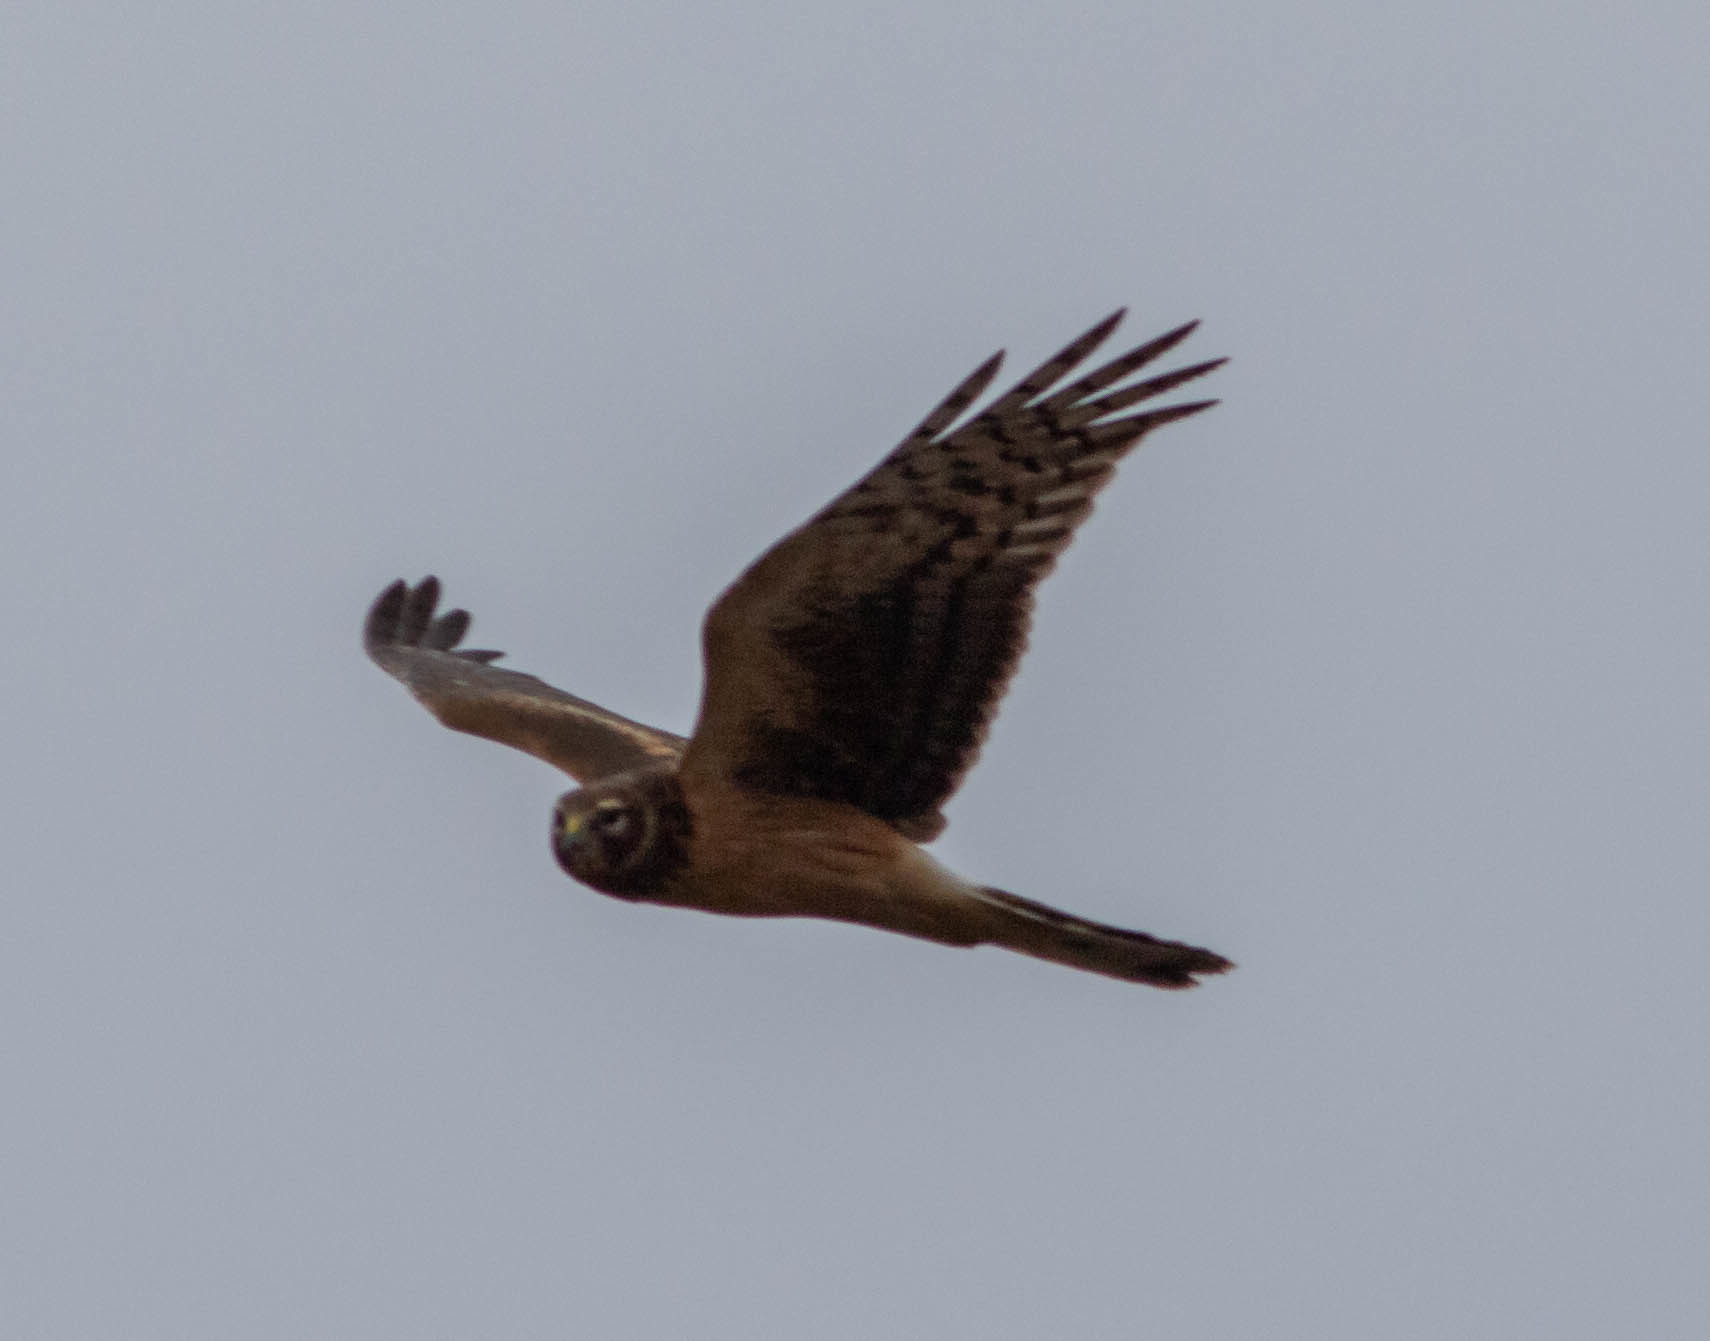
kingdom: Animalia
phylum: Chordata
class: Aves
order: Accipitriformes
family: Accipitridae
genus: Circus
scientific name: Circus cyaneus
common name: Hen harrier
